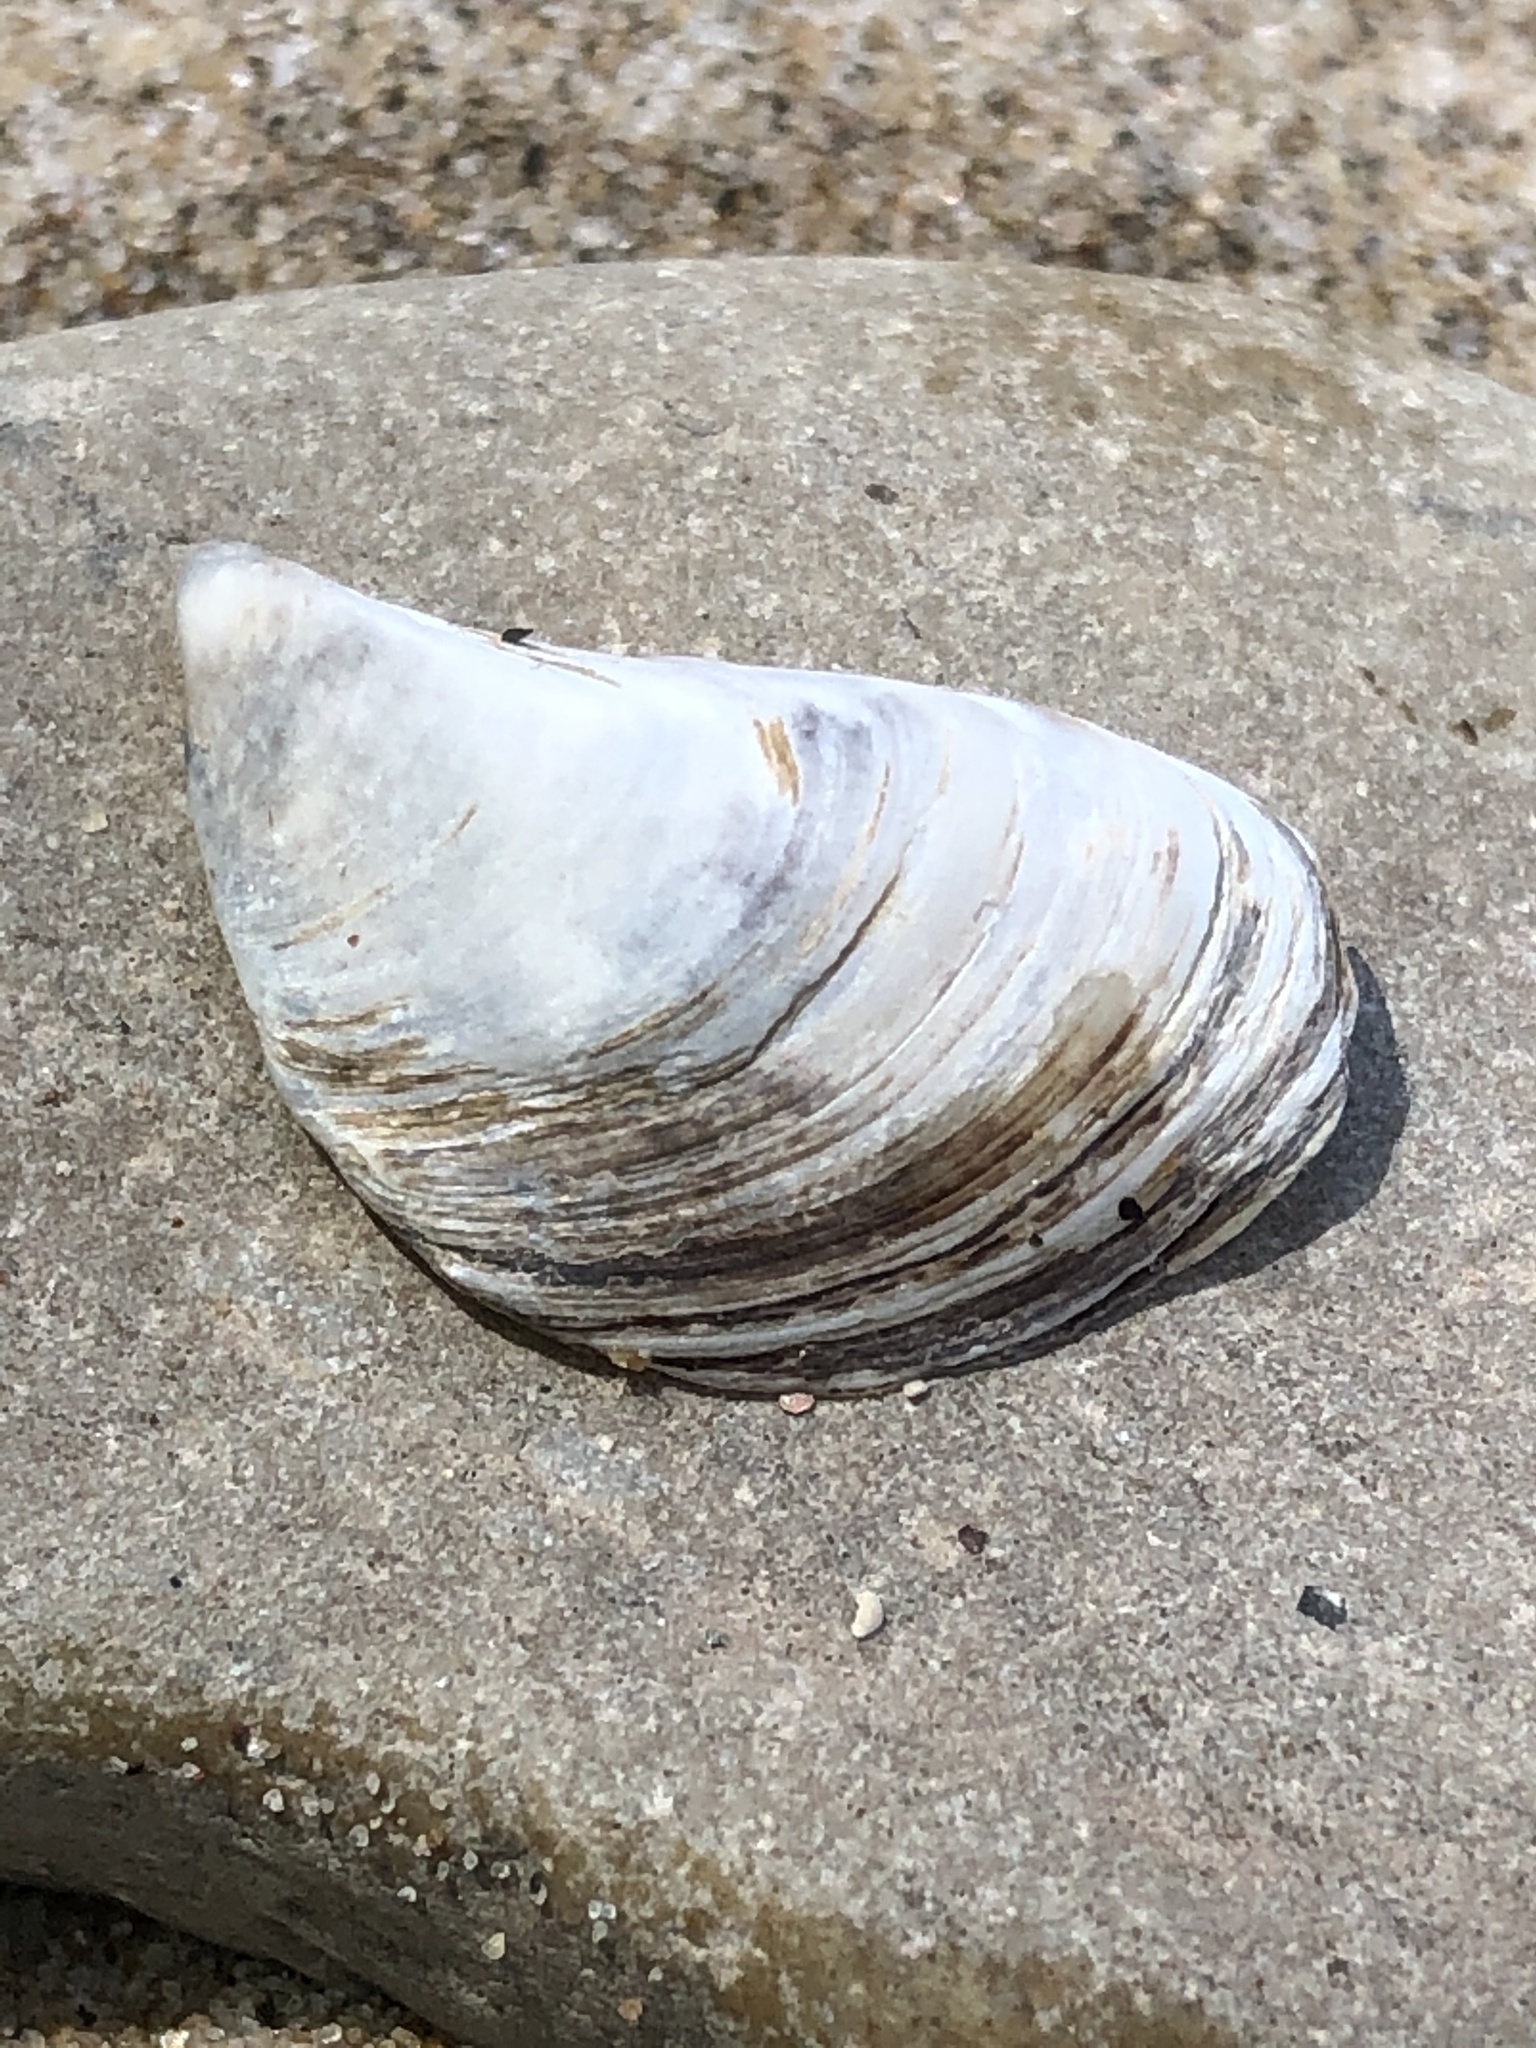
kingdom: Animalia
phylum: Mollusca
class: Bivalvia
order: Myida
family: Dreissenidae
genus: Dreissena
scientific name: Dreissena bugensis
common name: Quagga mussel
